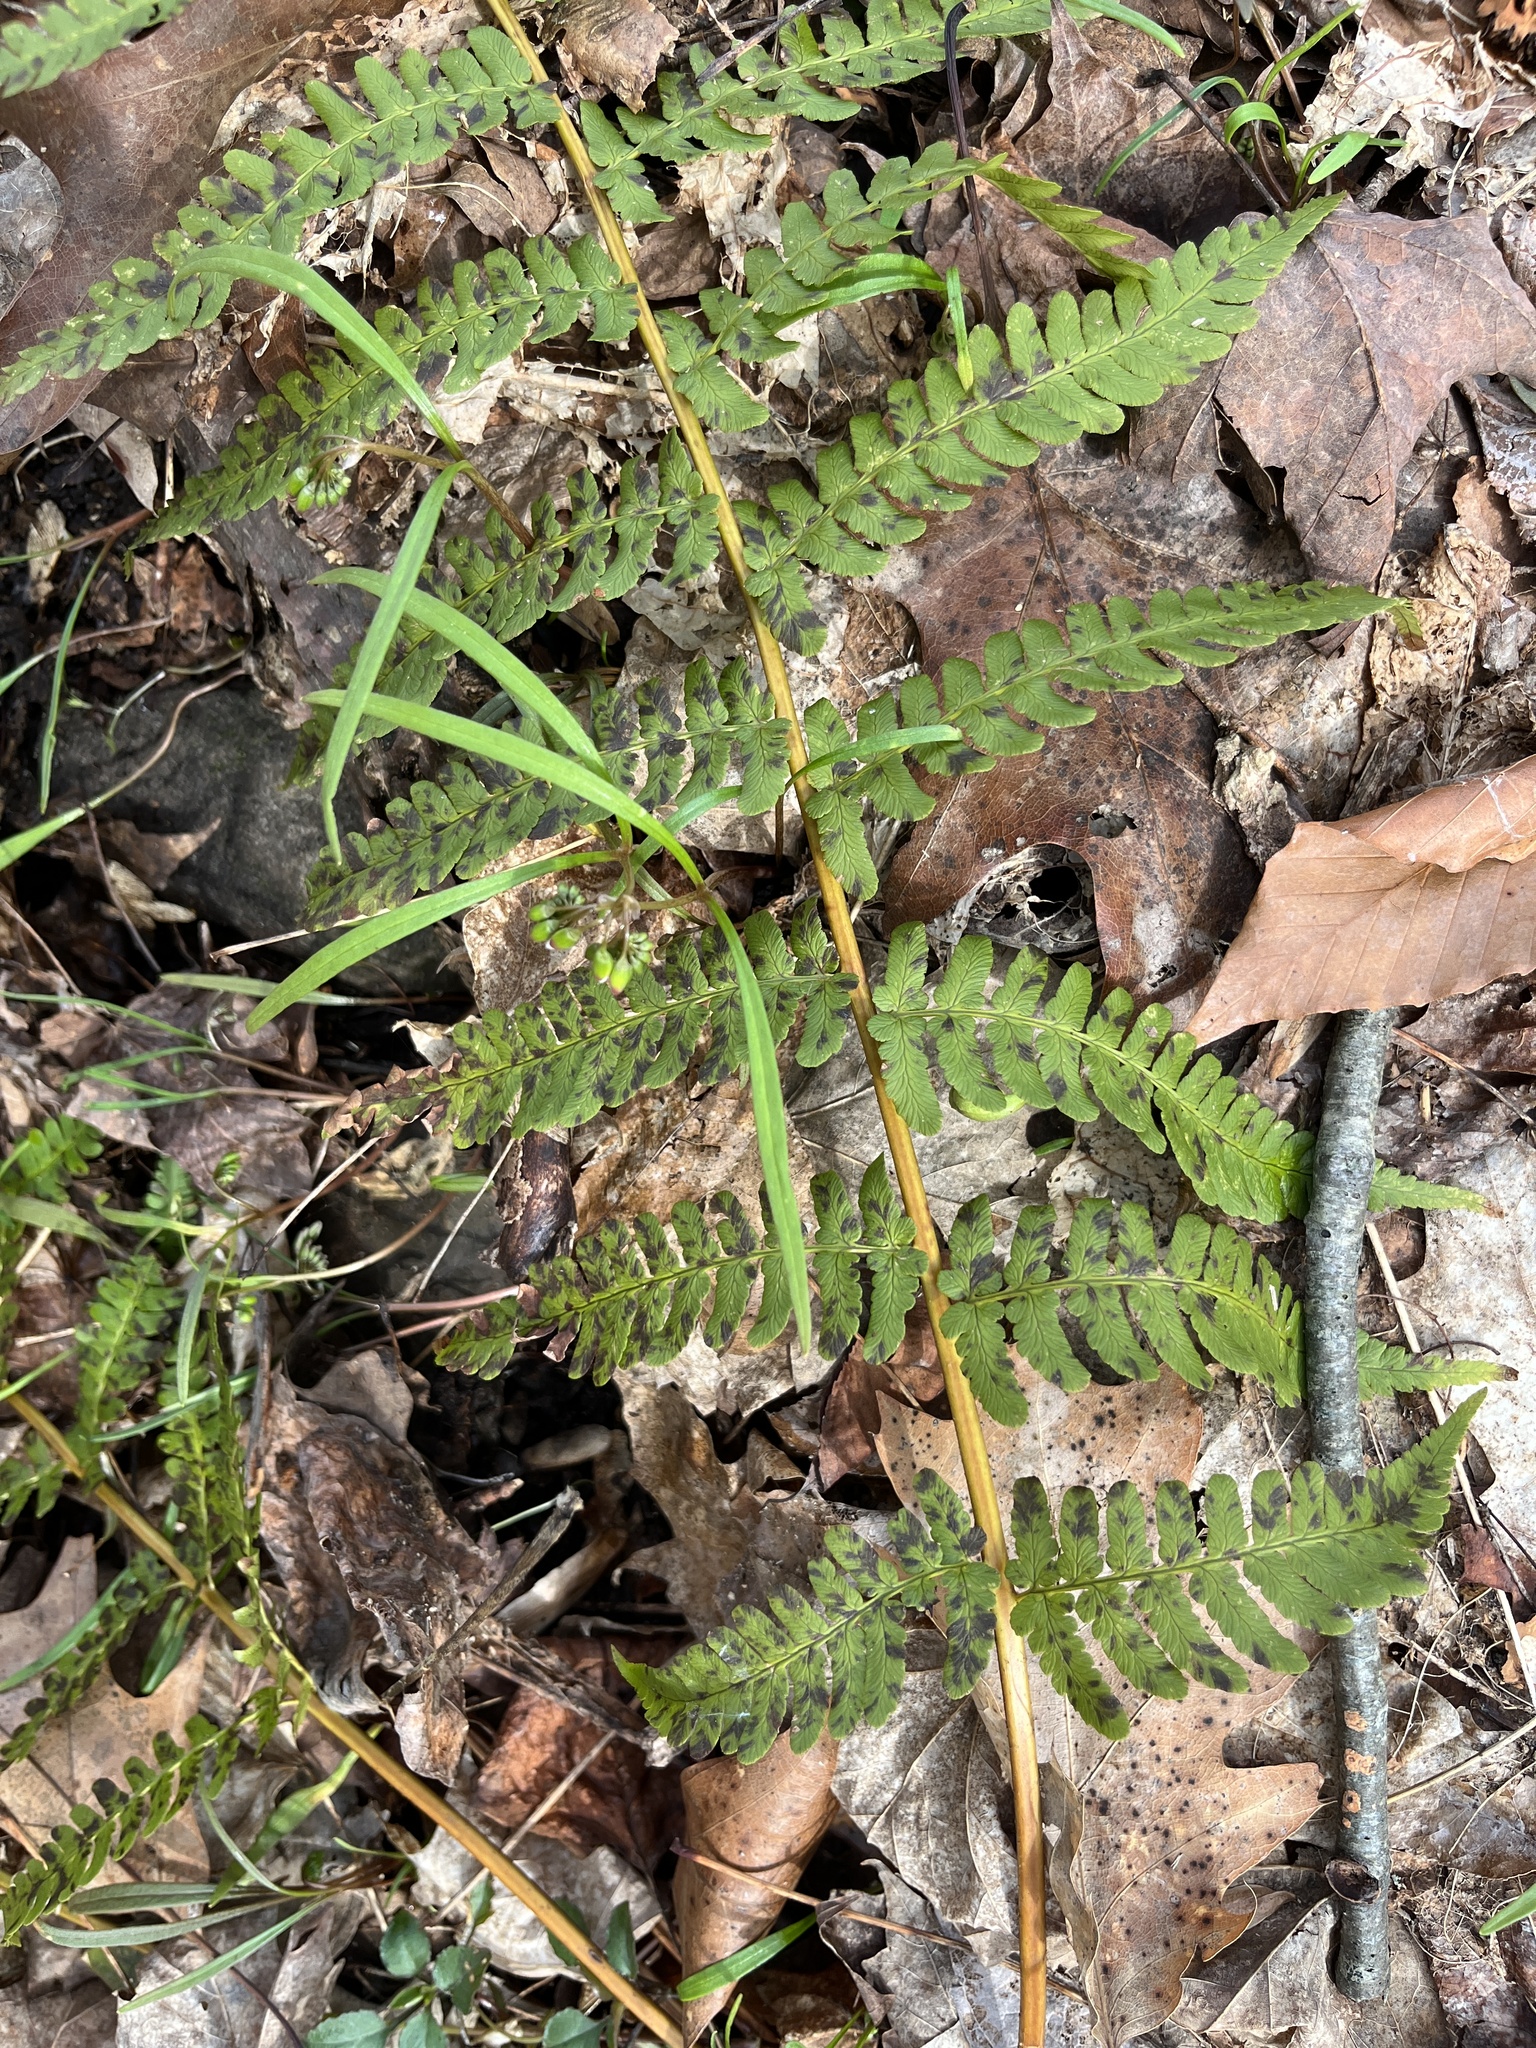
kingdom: Plantae
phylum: Tracheophyta
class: Polypodiopsida
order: Polypodiales
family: Dryopteridaceae
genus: Dryopteris
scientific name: Dryopteris marginalis
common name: Marginal wood fern
